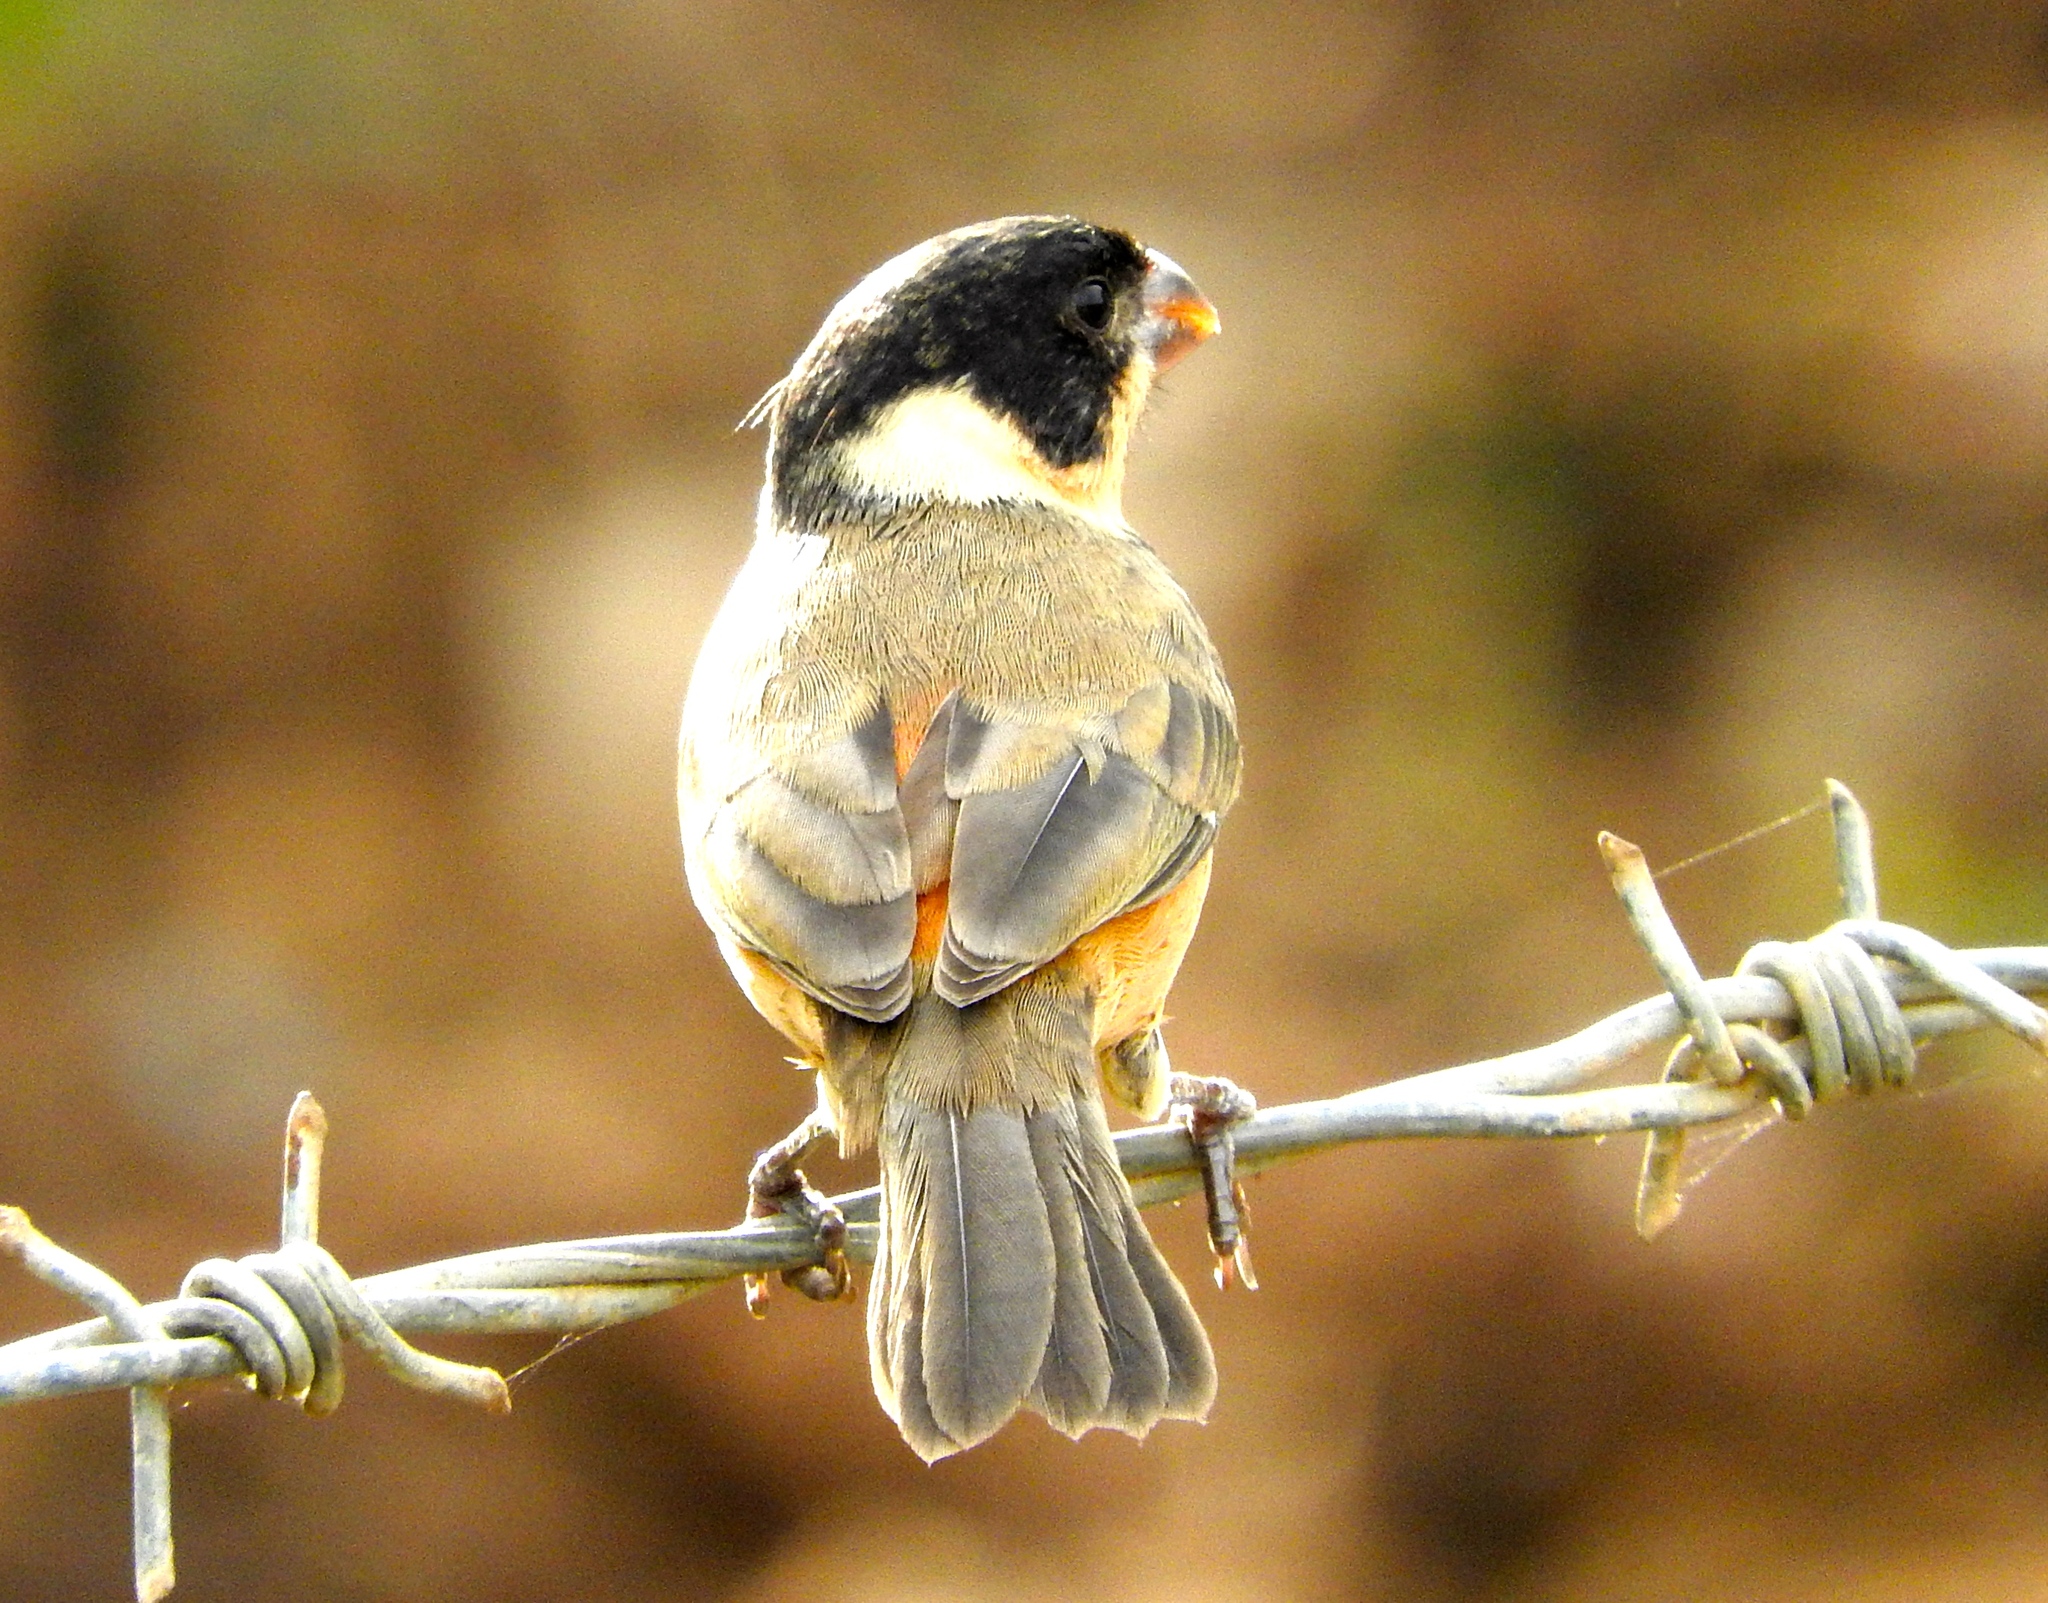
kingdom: Animalia
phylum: Chordata
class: Aves
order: Passeriformes
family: Thraupidae
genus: Sporophila
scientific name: Sporophila torqueola
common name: White-collared seedeater
